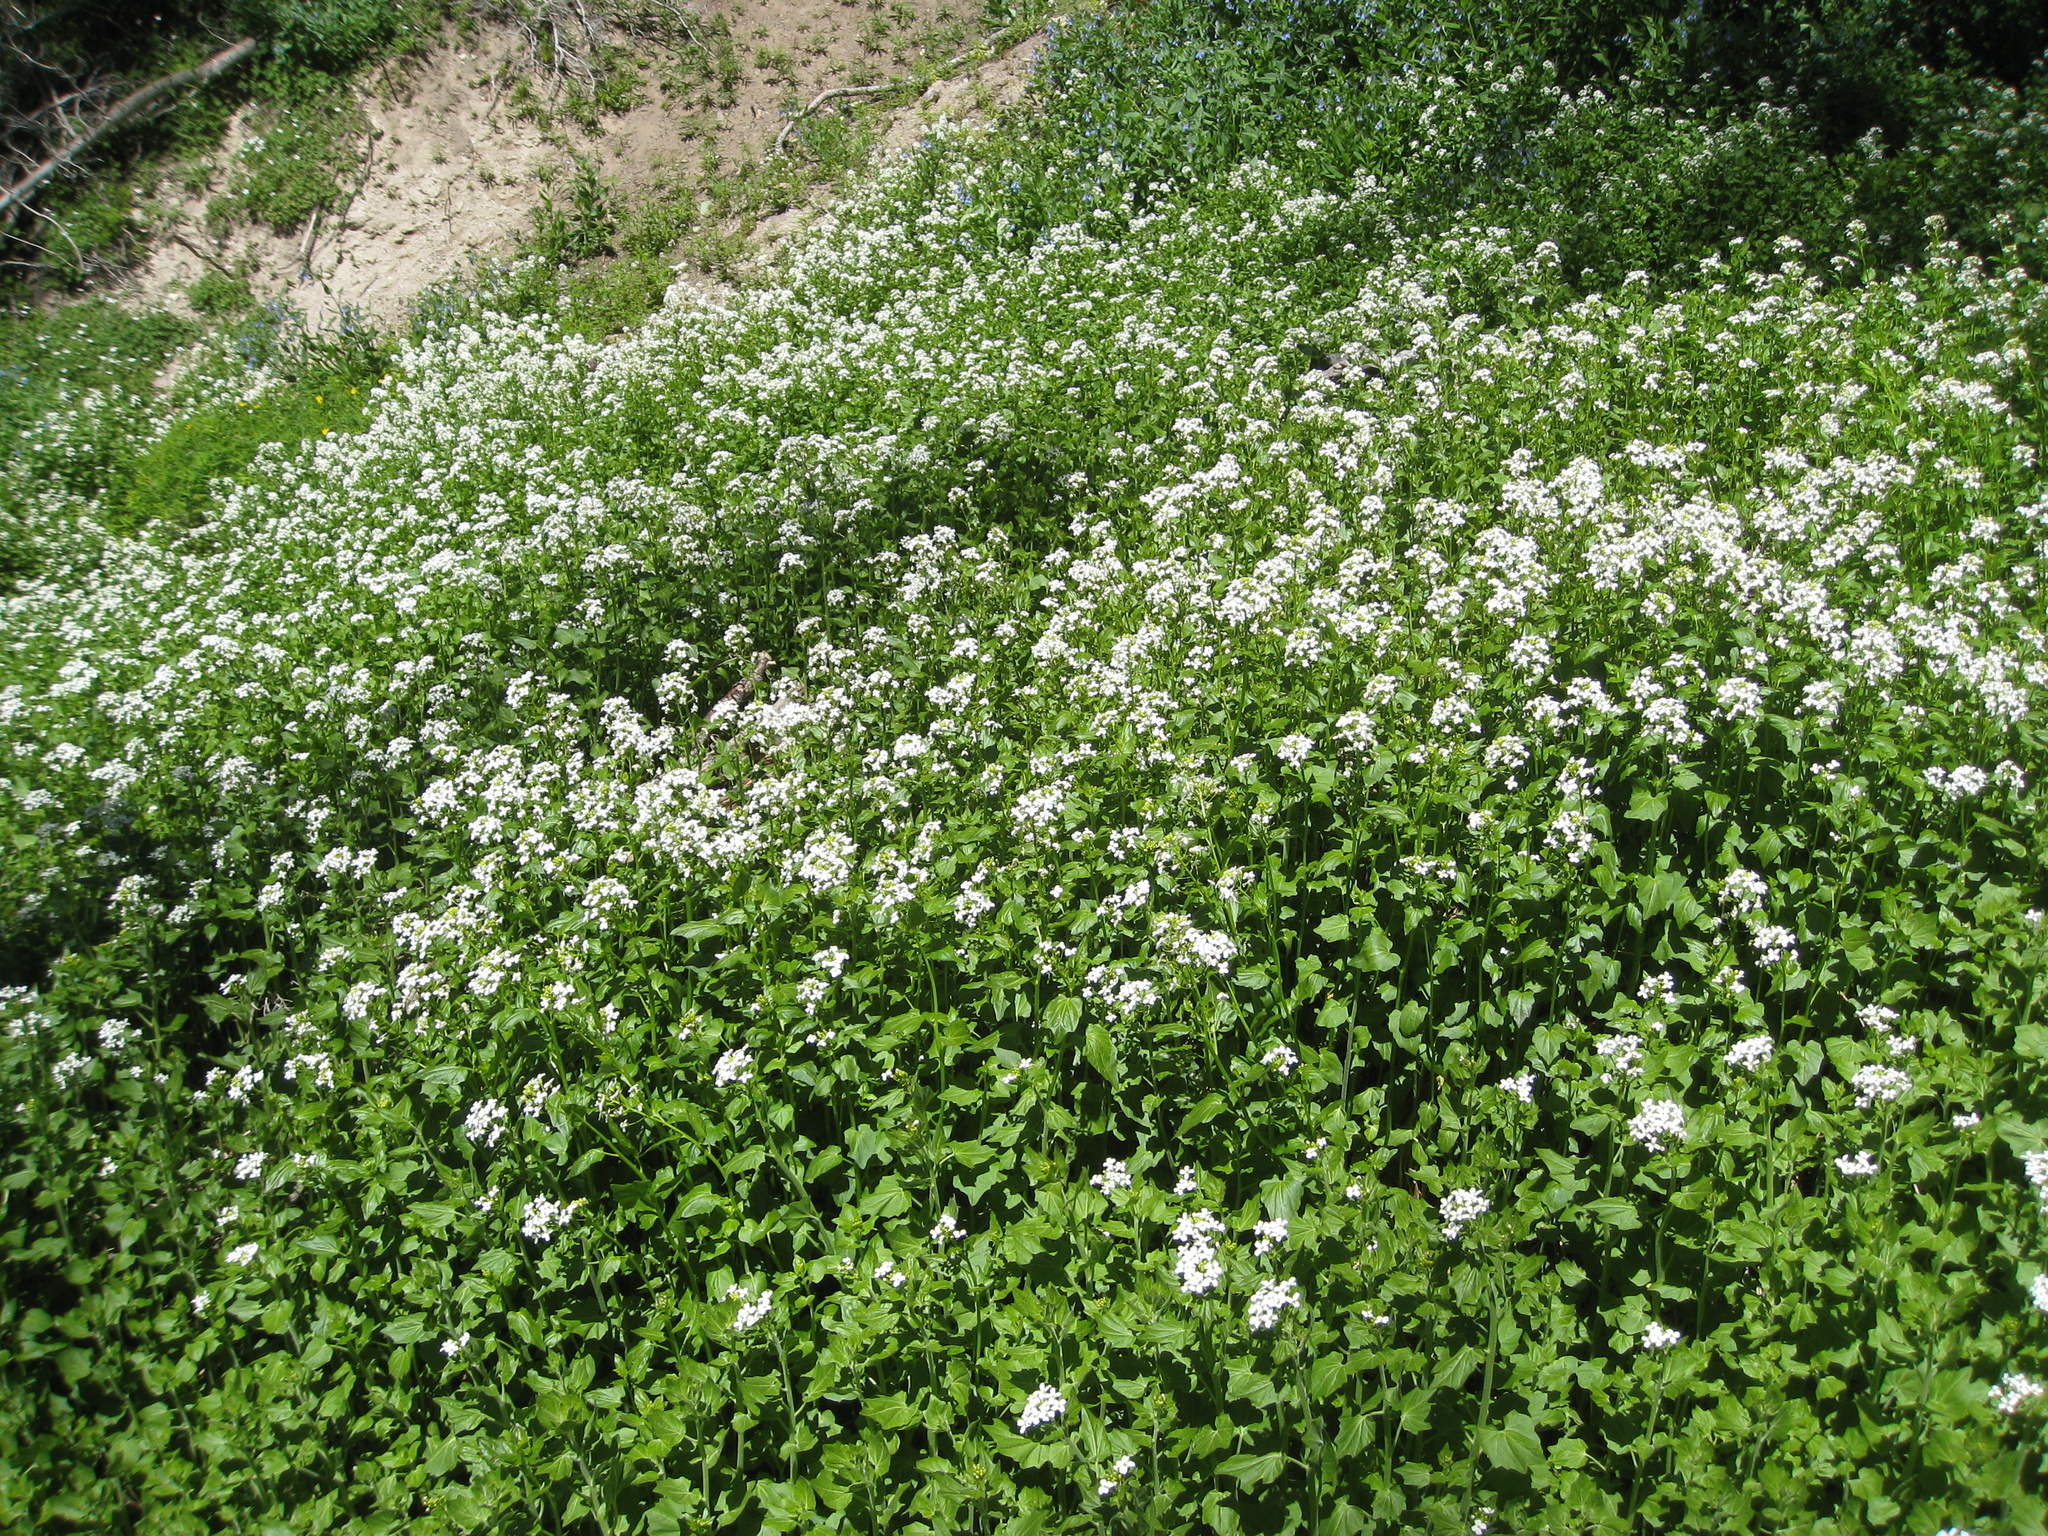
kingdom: Plantae
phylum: Tracheophyta
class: Magnoliopsida
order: Brassicales
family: Brassicaceae
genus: Cardamine
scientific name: Cardamine cordifolia
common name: Heart-leaf bittercress
